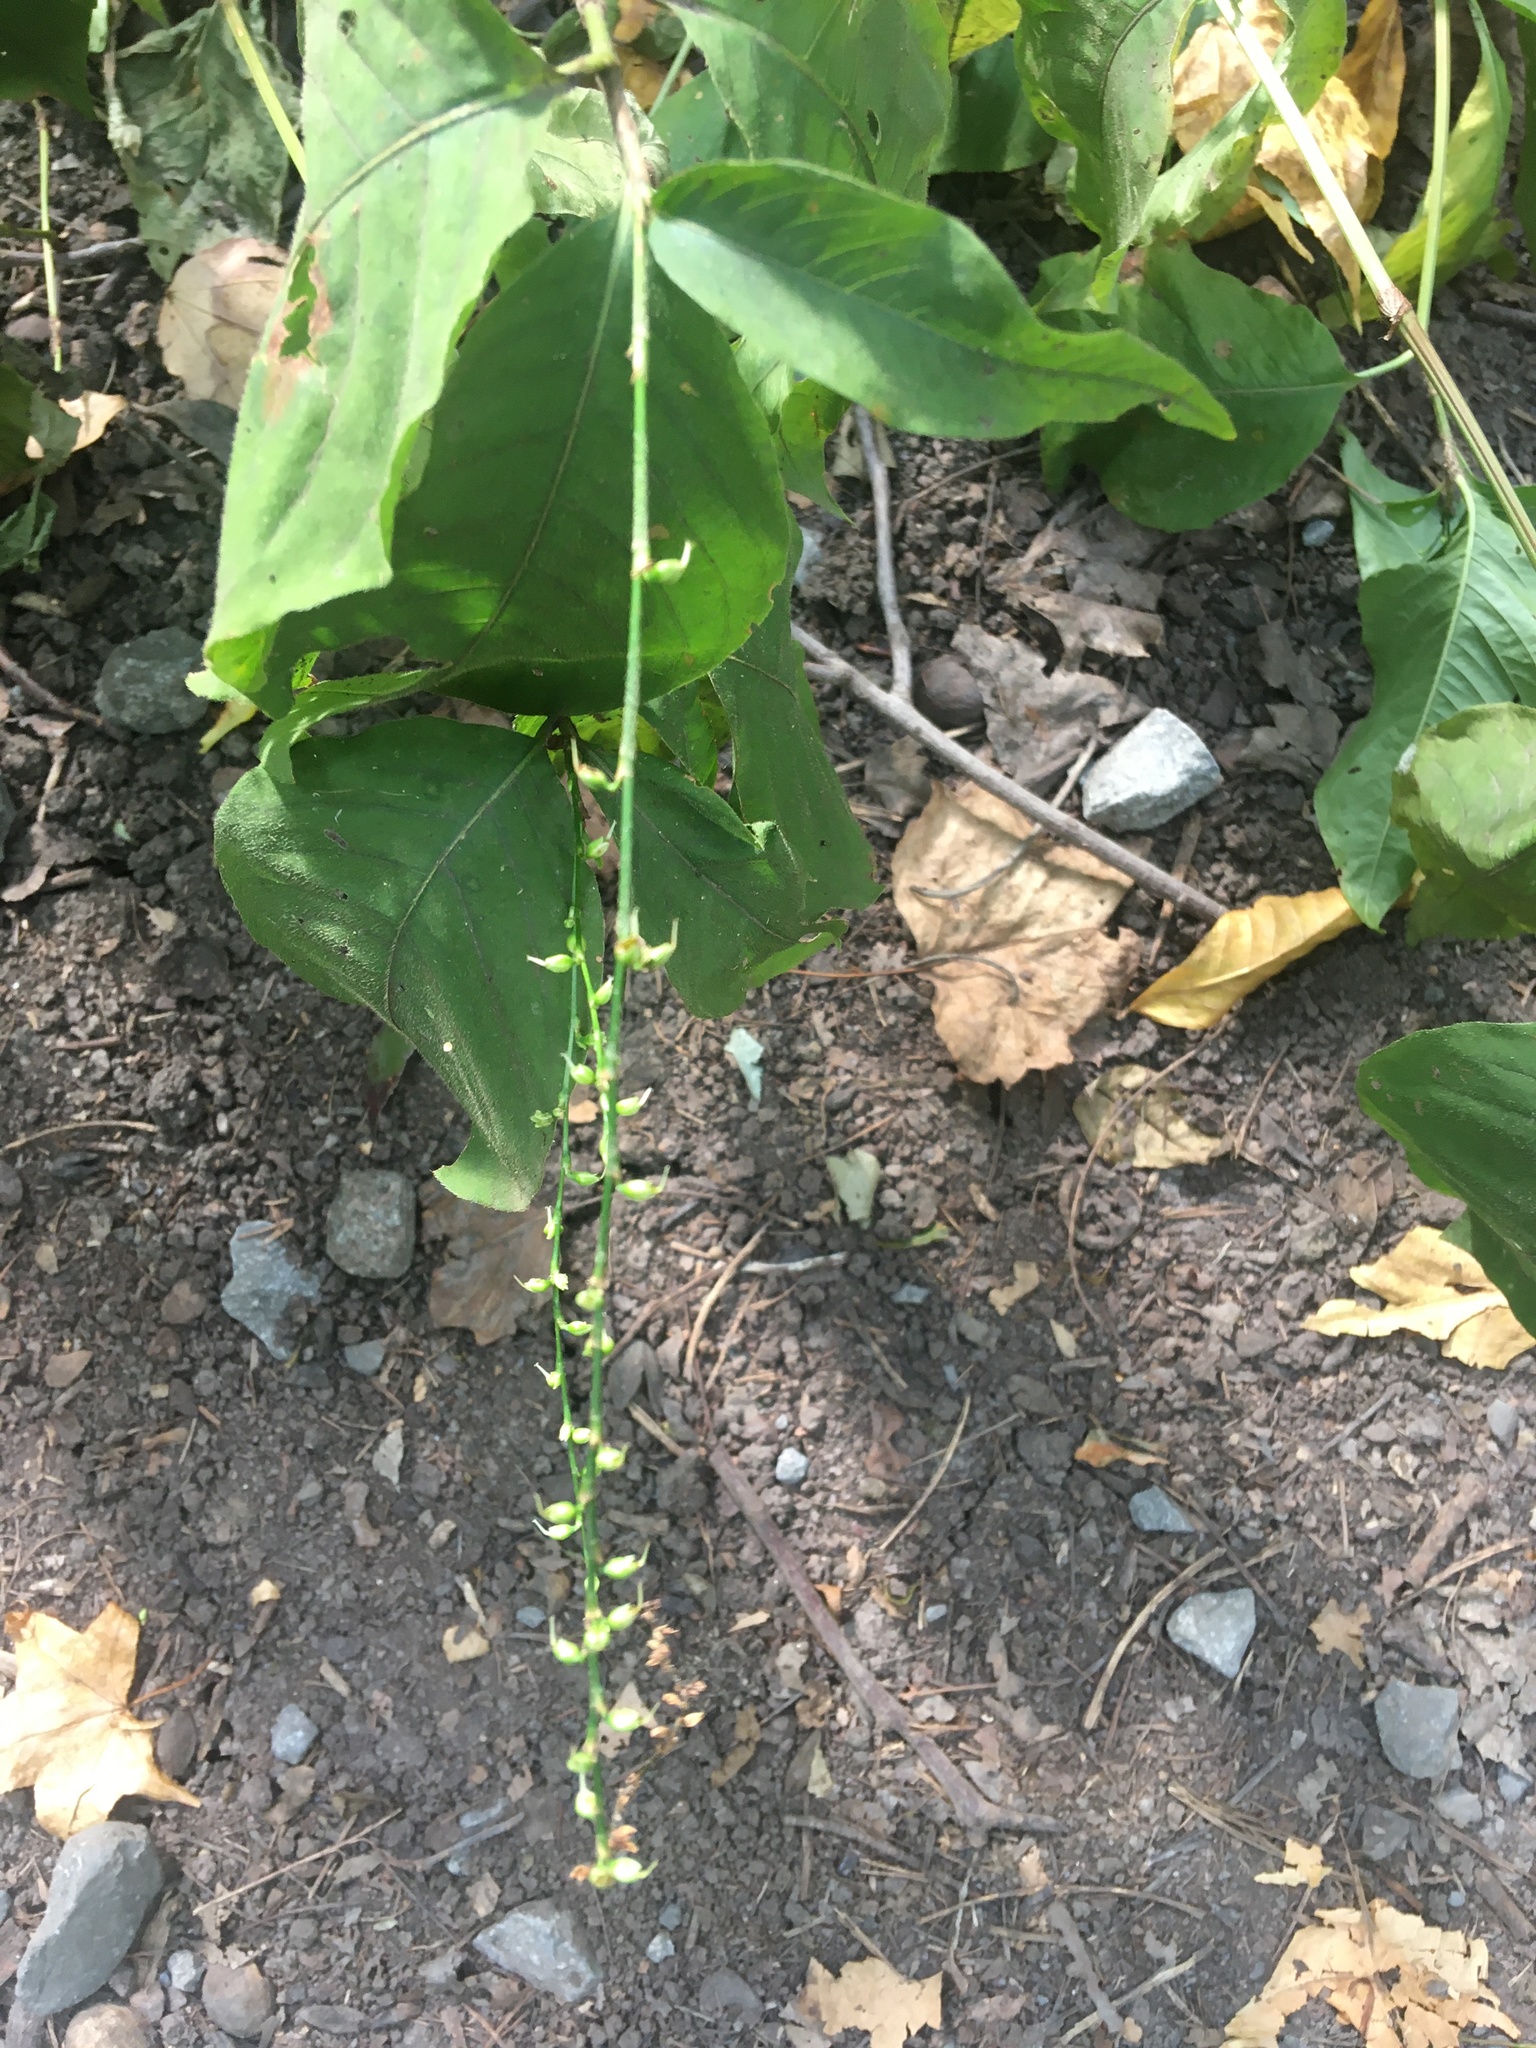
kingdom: Plantae
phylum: Tracheophyta
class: Magnoliopsida
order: Caryophyllales
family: Polygonaceae
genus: Persicaria
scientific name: Persicaria virginiana
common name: Jumpseed
